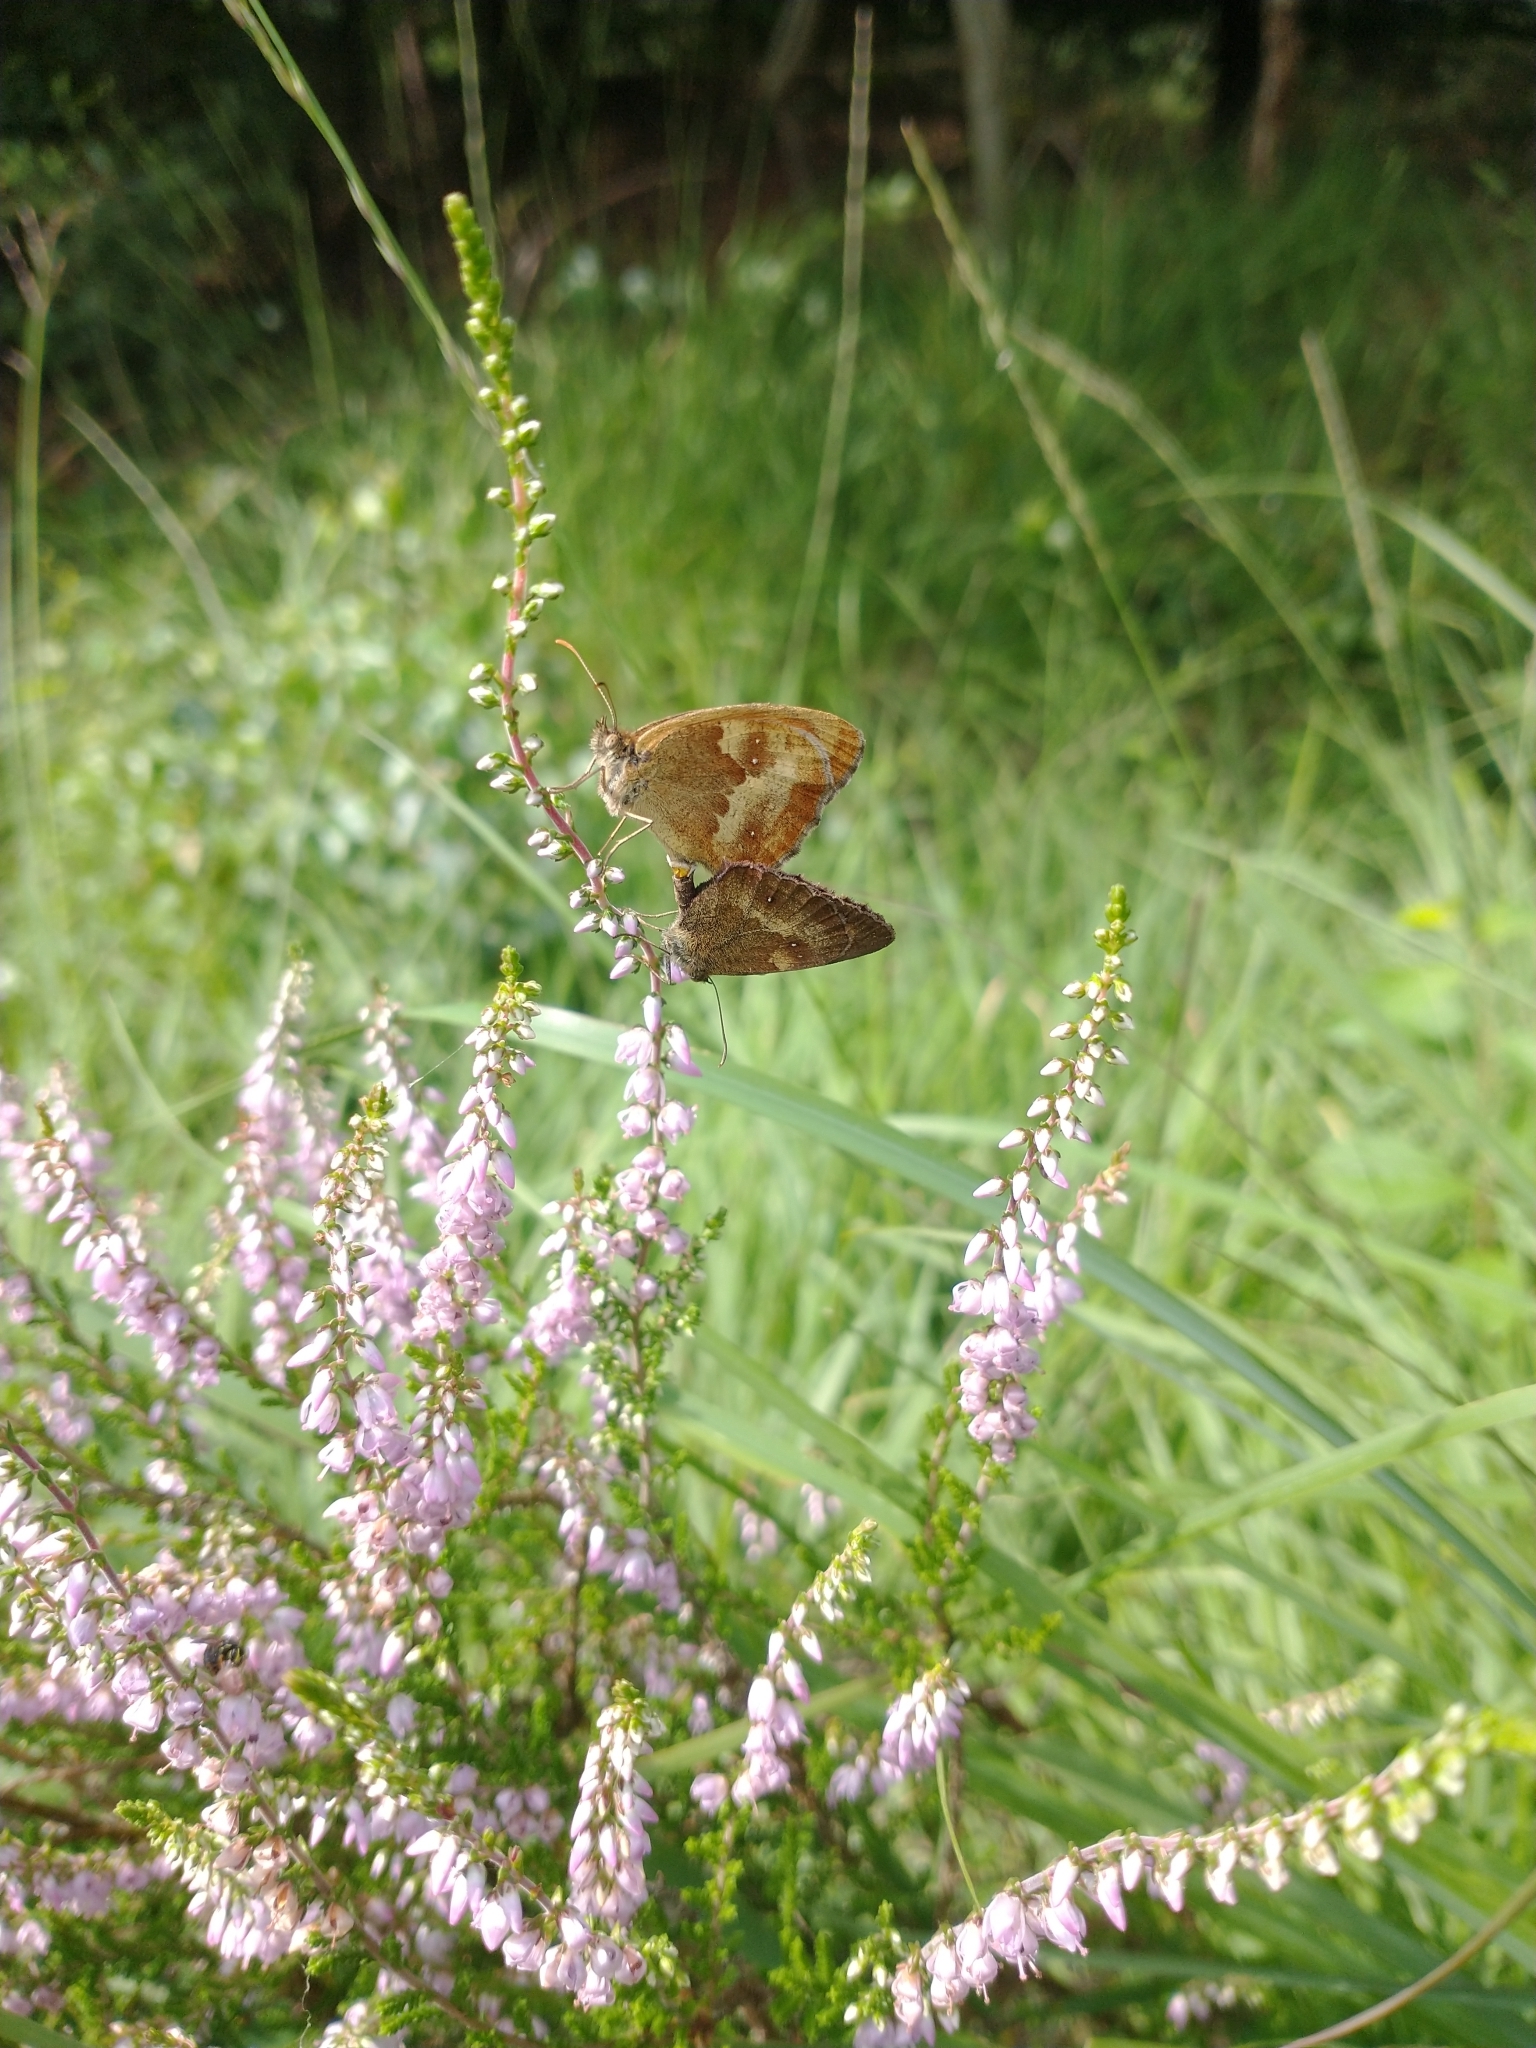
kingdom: Animalia
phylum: Arthropoda
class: Insecta
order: Lepidoptera
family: Nymphalidae
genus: Pyronia
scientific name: Pyronia tithonus
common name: Gatekeeper
